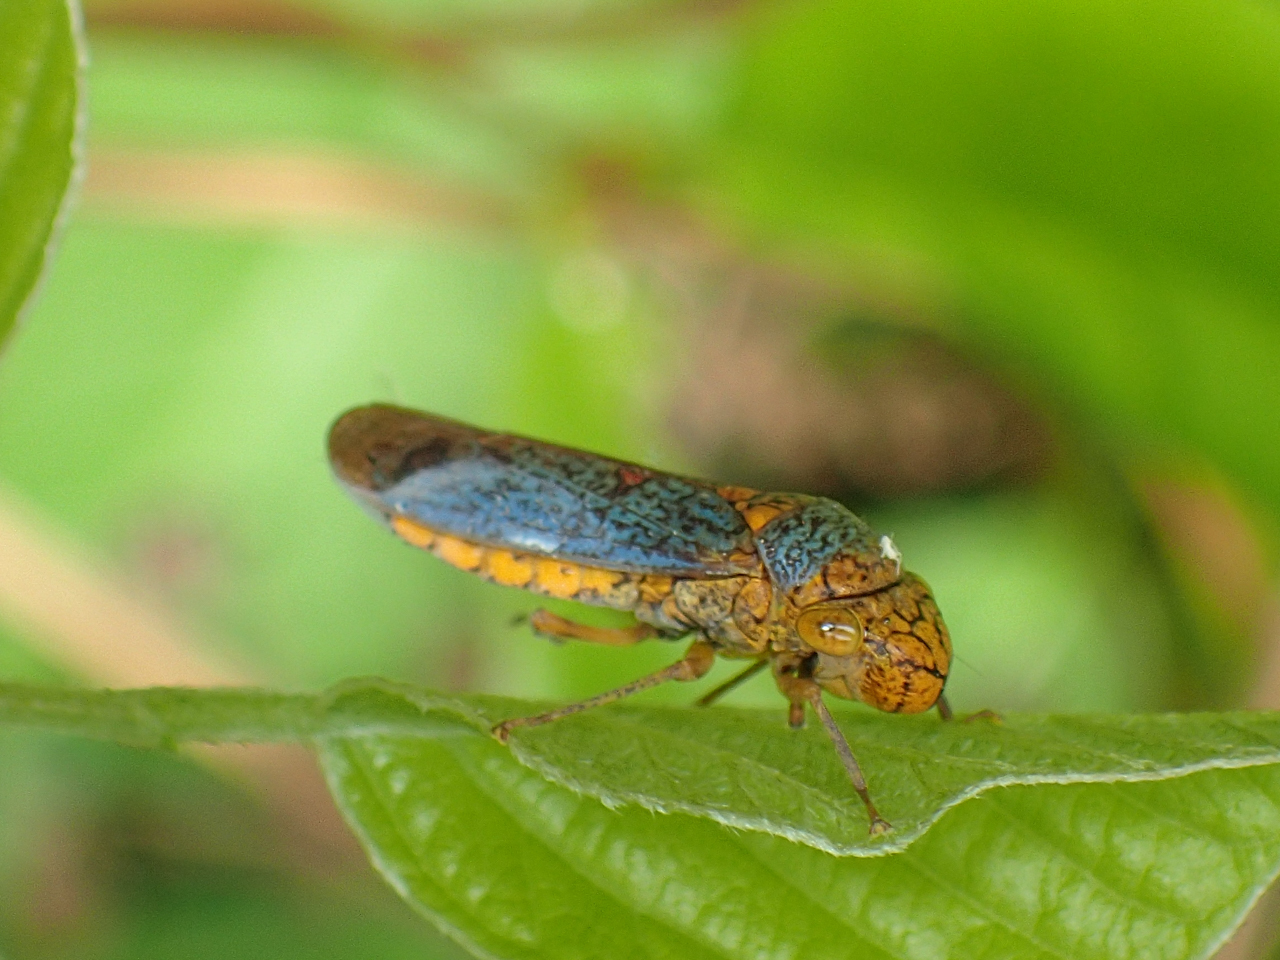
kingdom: Animalia
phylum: Arthropoda
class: Insecta
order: Hemiptera
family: Cicadellidae
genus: Oncometopia
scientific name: Oncometopia orbona
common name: Broad-headed sharpshooter
